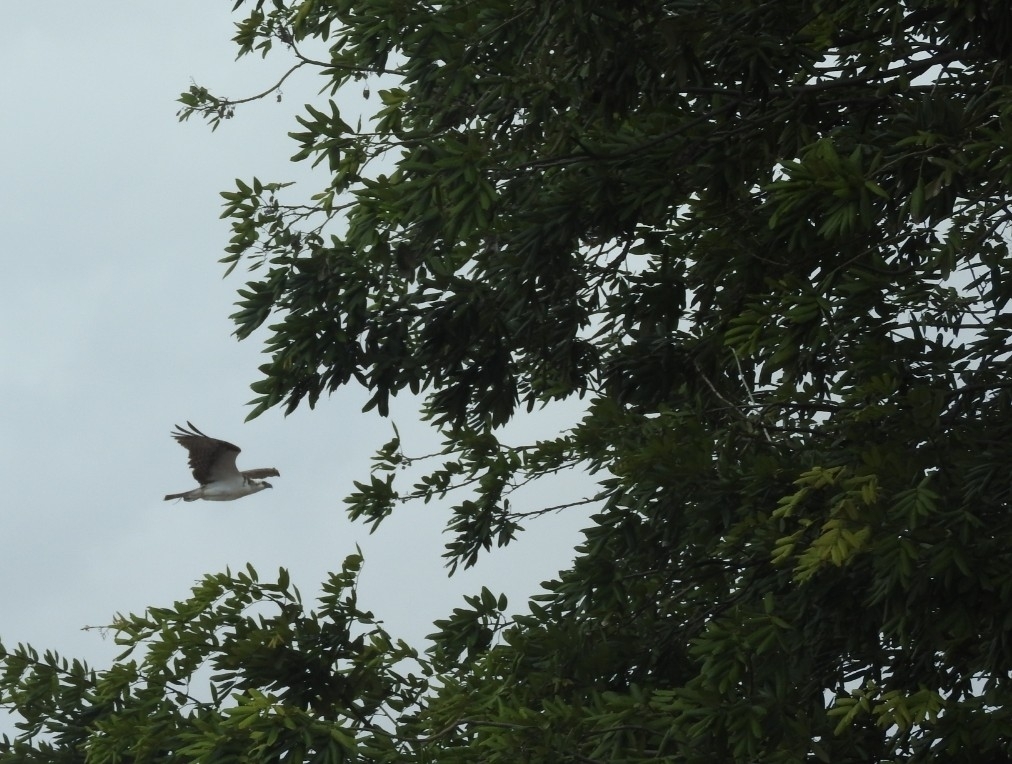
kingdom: Animalia
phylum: Chordata
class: Aves
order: Accipitriformes
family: Pandionidae
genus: Pandion
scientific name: Pandion haliaetus
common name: Osprey
